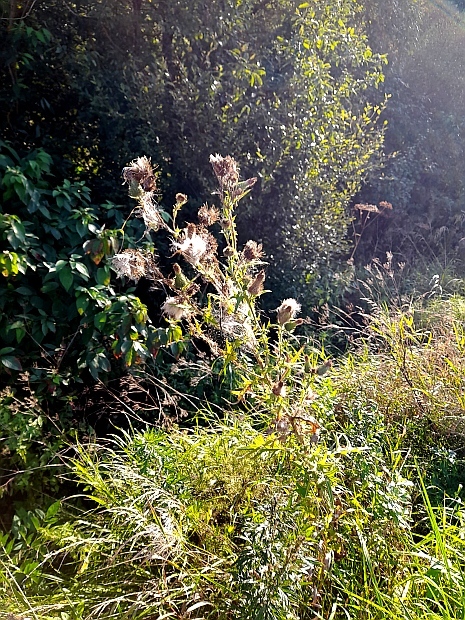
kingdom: Plantae
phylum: Tracheophyta
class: Magnoliopsida
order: Asterales
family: Asteraceae
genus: Cirsium
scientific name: Cirsium vulgare
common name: Bull thistle
